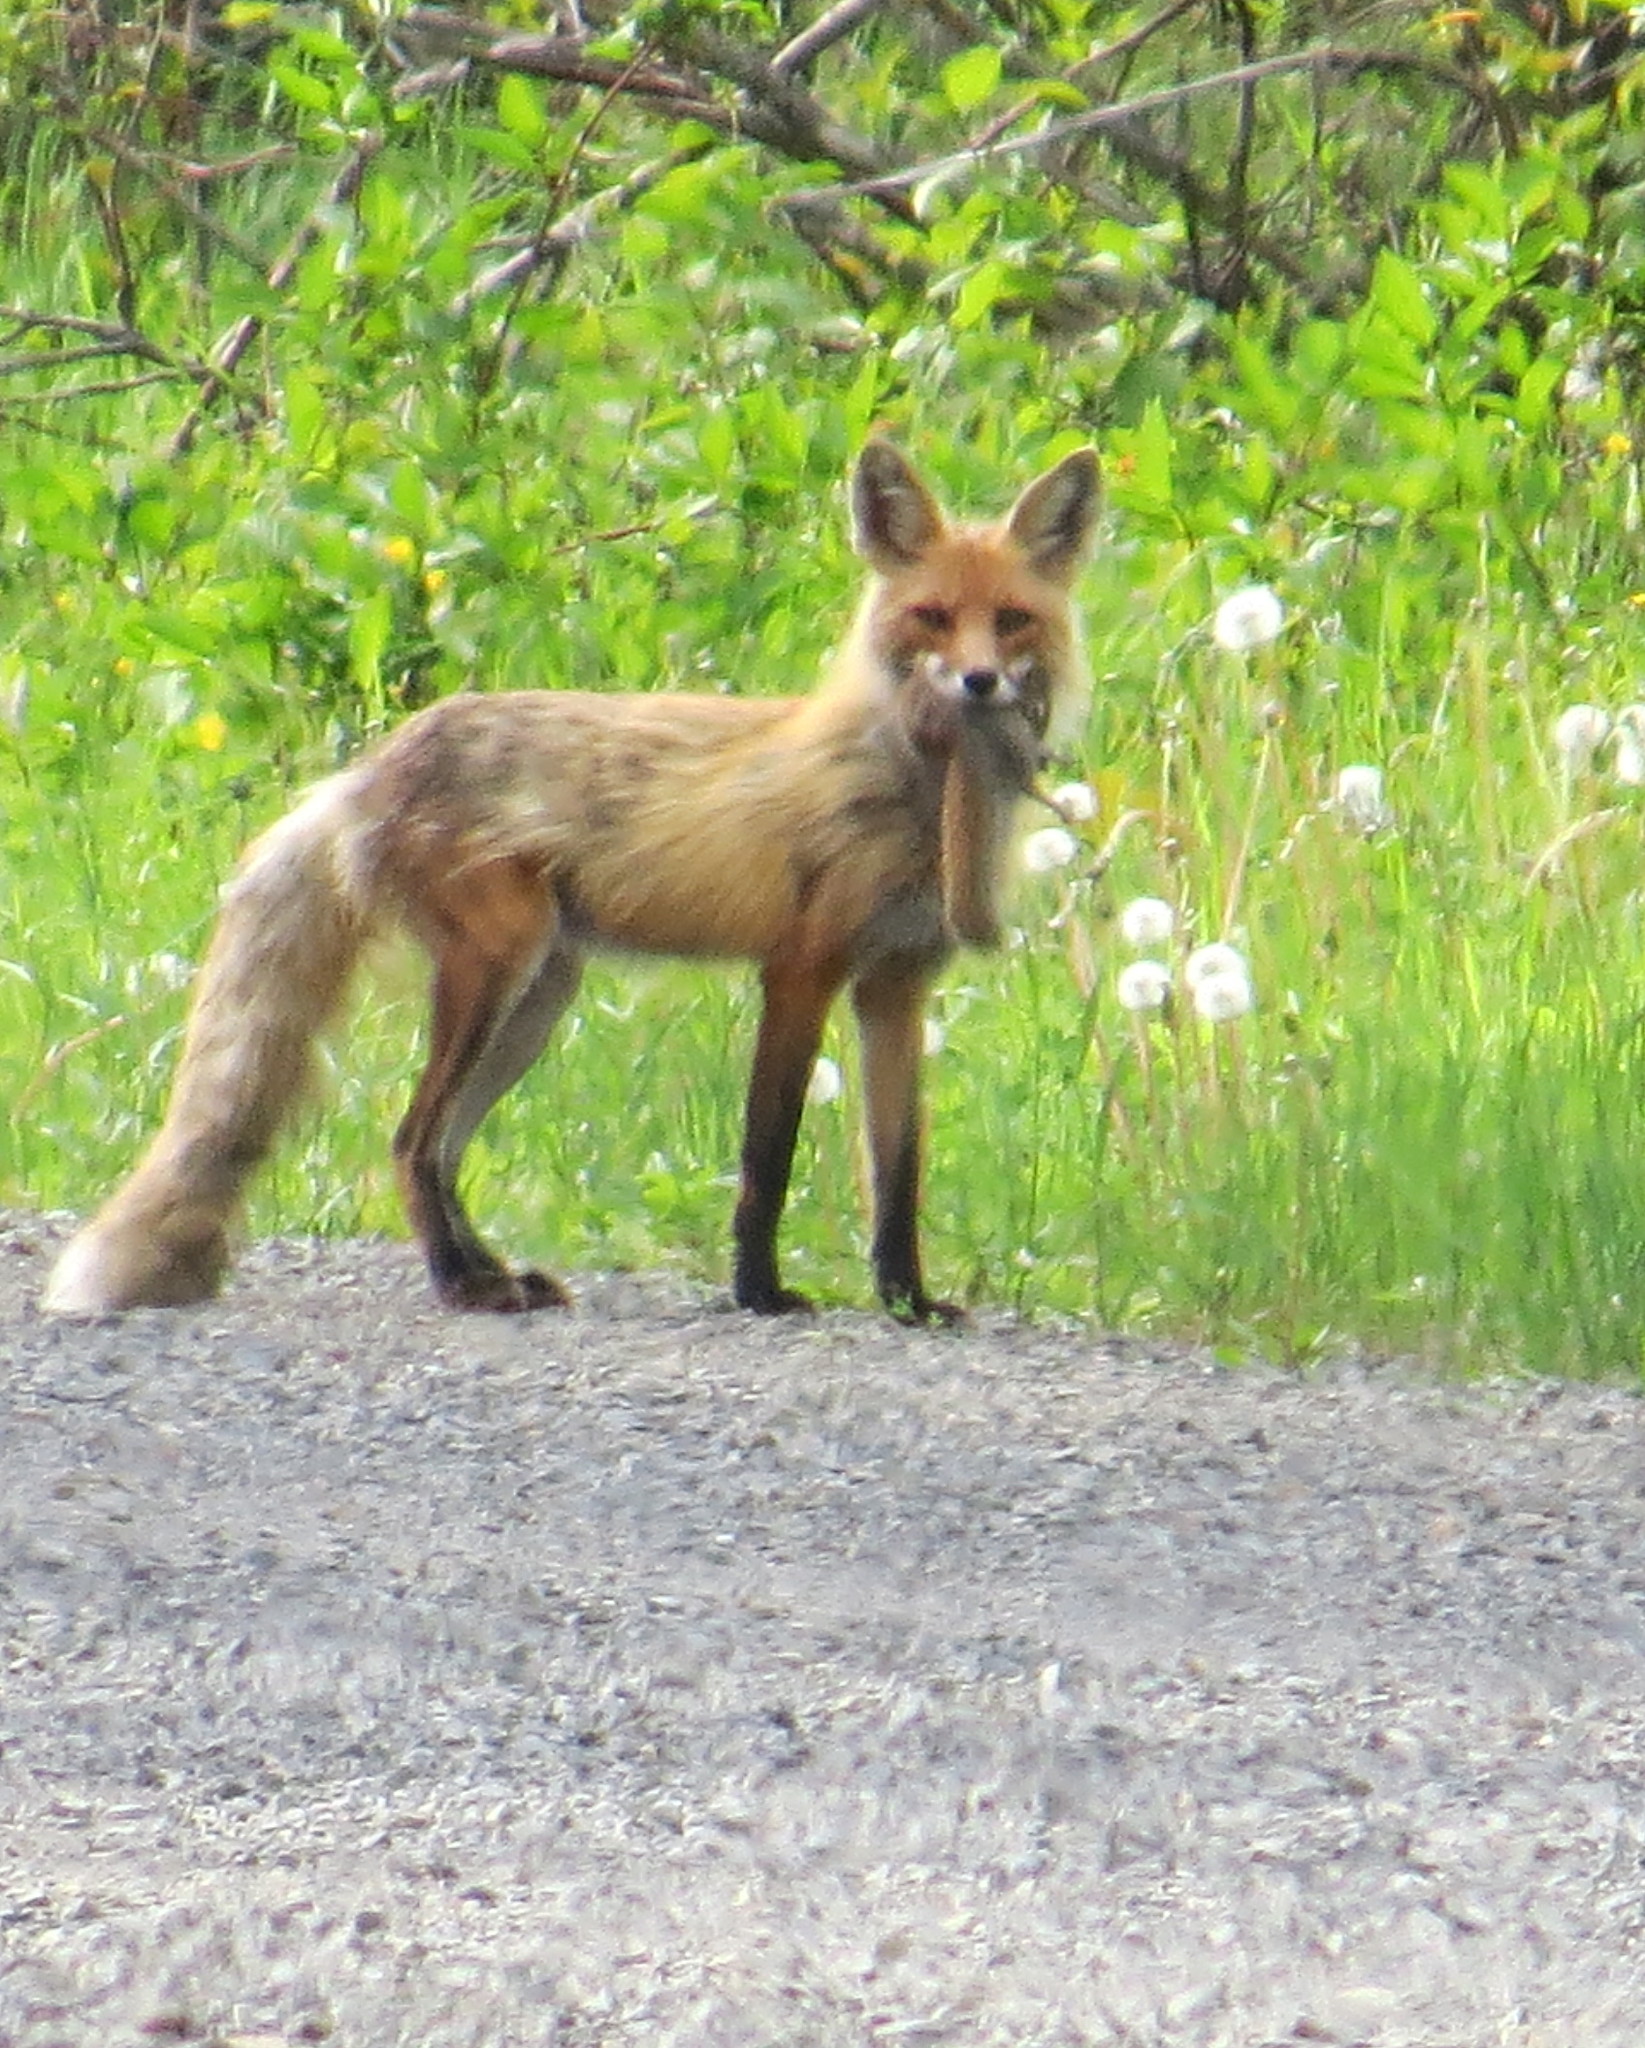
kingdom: Animalia
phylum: Chordata
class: Mammalia
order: Carnivora
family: Canidae
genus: Vulpes
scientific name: Vulpes vulpes
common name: Red fox
